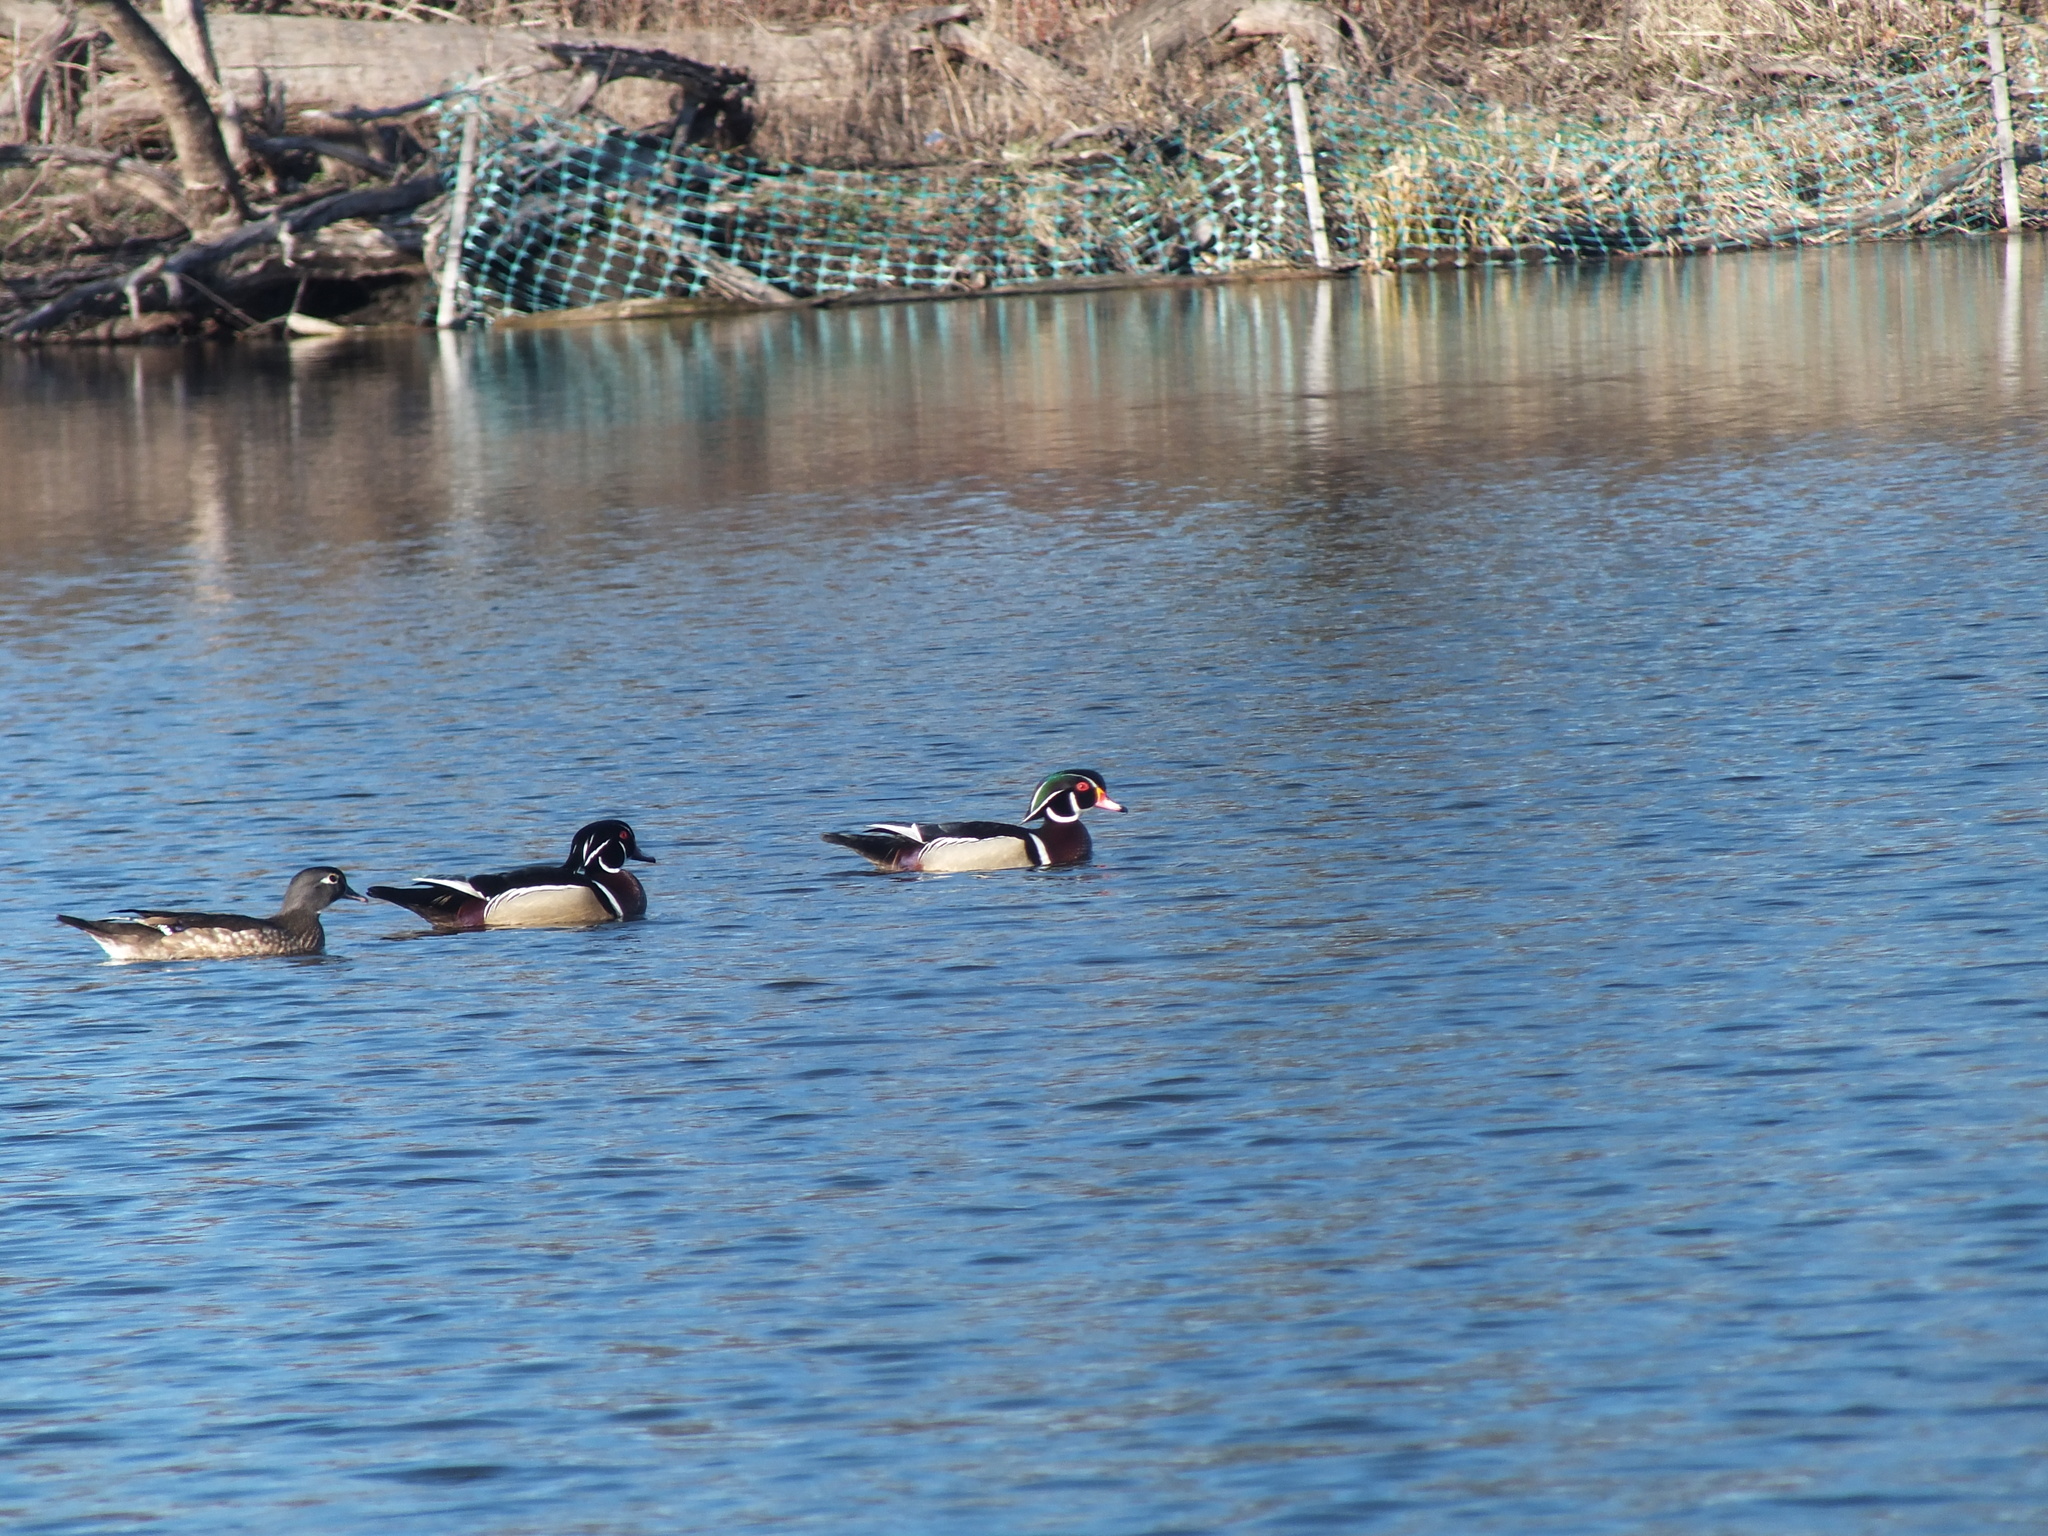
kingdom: Animalia
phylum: Chordata
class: Aves
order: Anseriformes
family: Anatidae
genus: Aix
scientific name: Aix sponsa
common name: Wood duck
